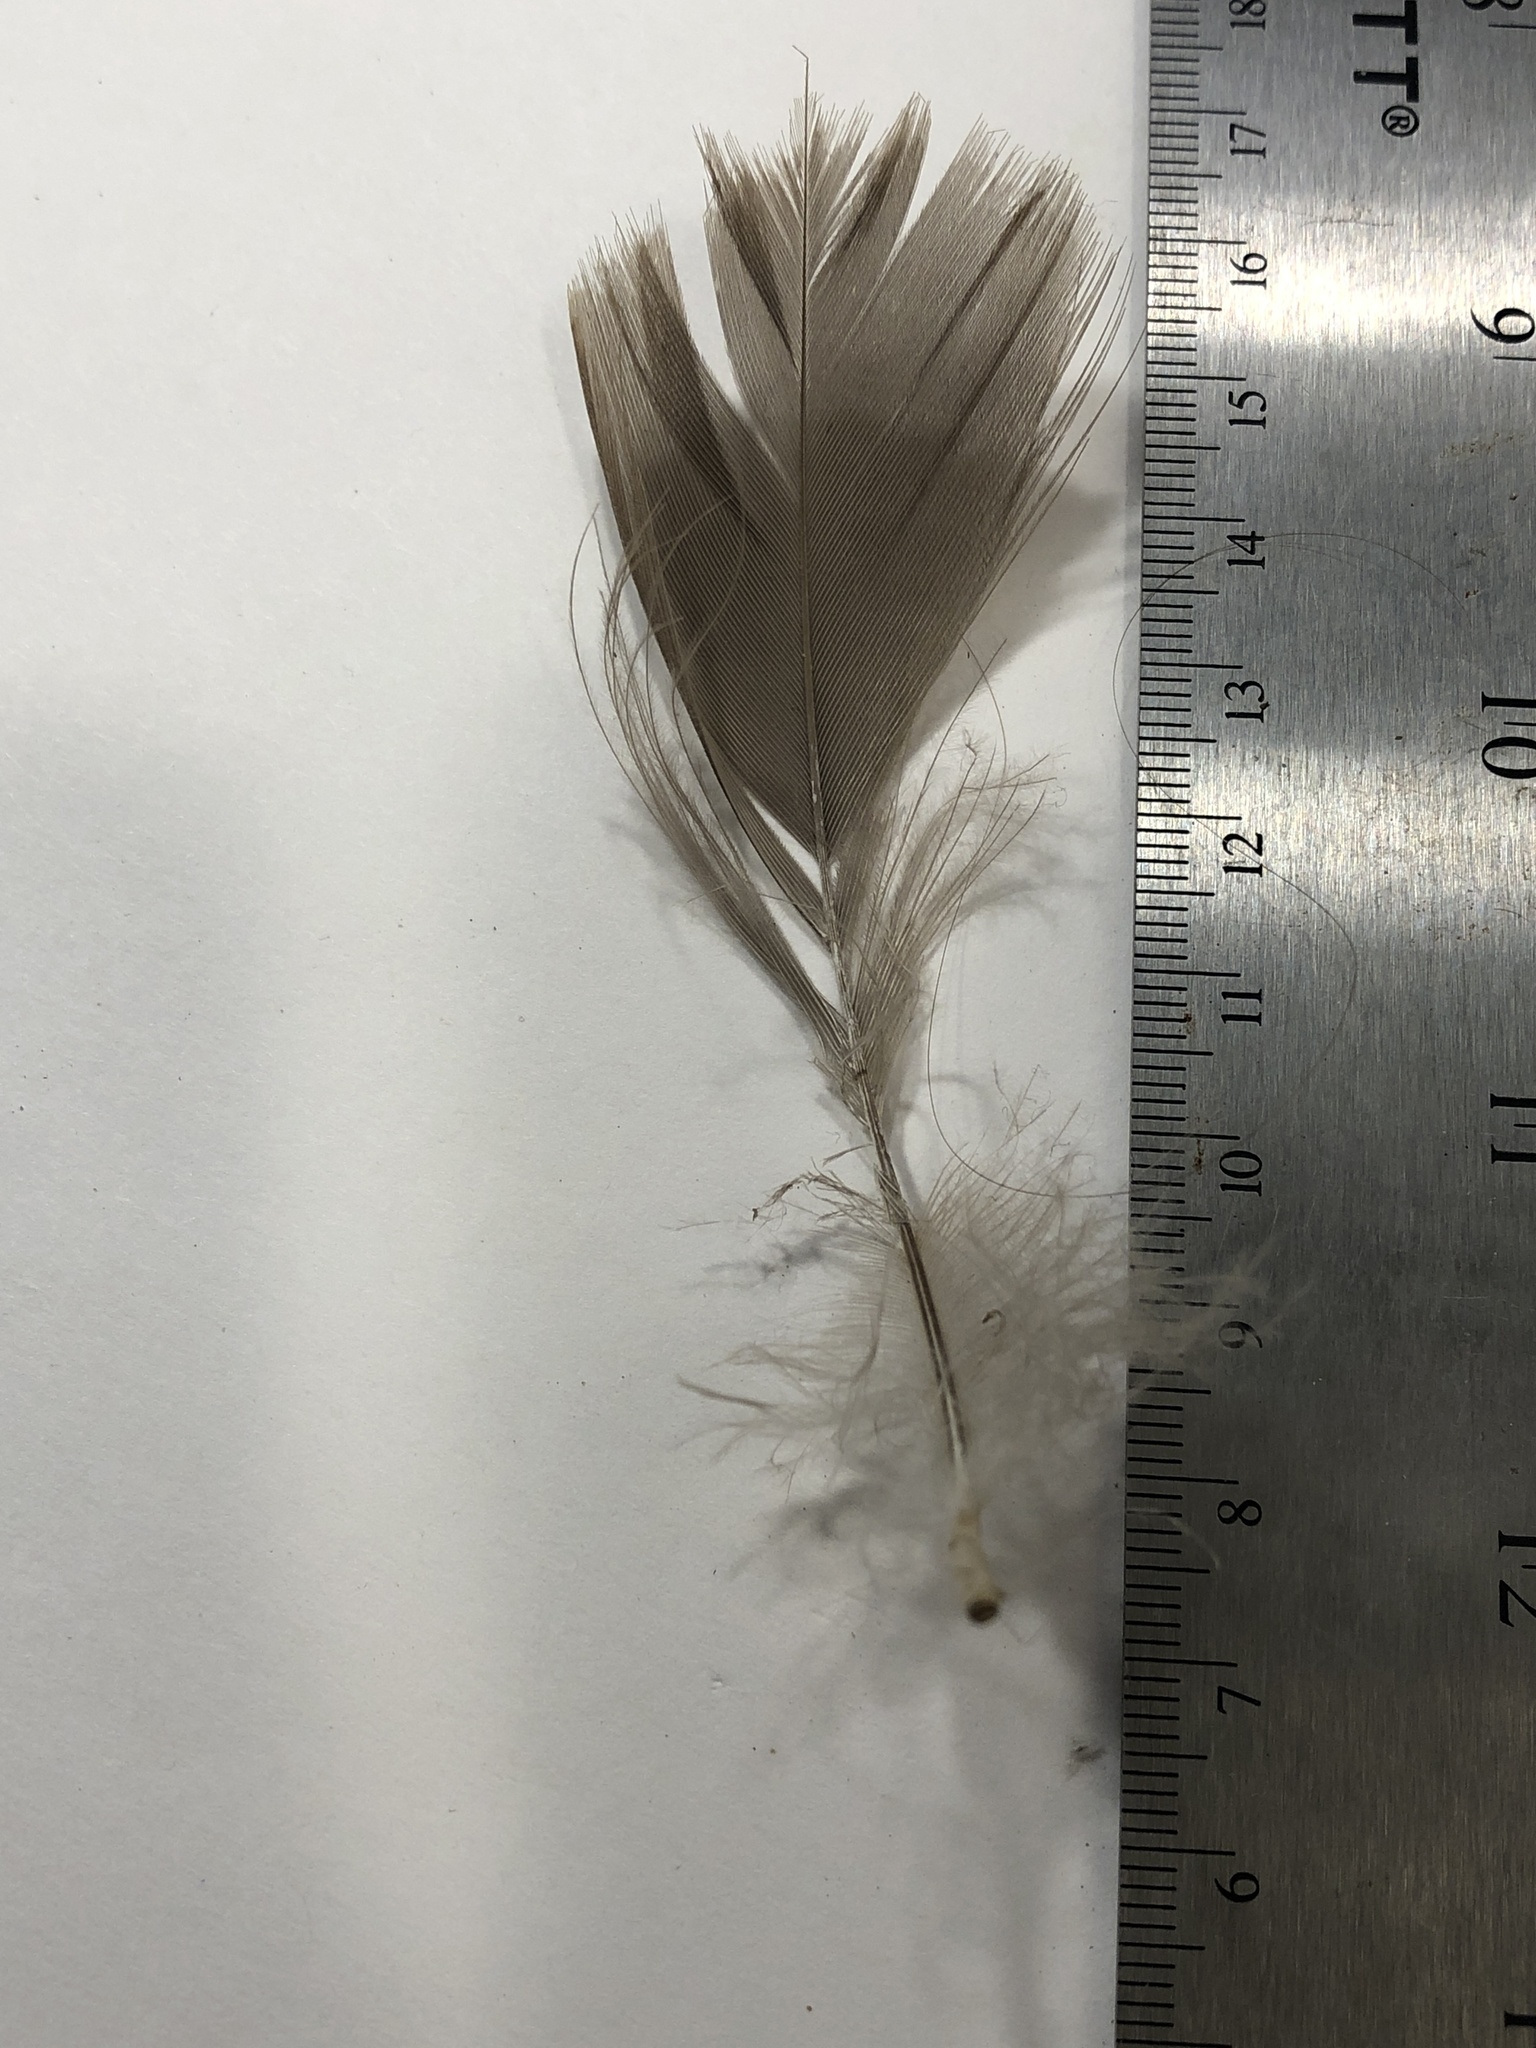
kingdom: Animalia
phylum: Chordata
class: Aves
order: Anseriformes
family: Anatidae
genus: Branta
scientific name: Branta canadensis
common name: Canada goose
